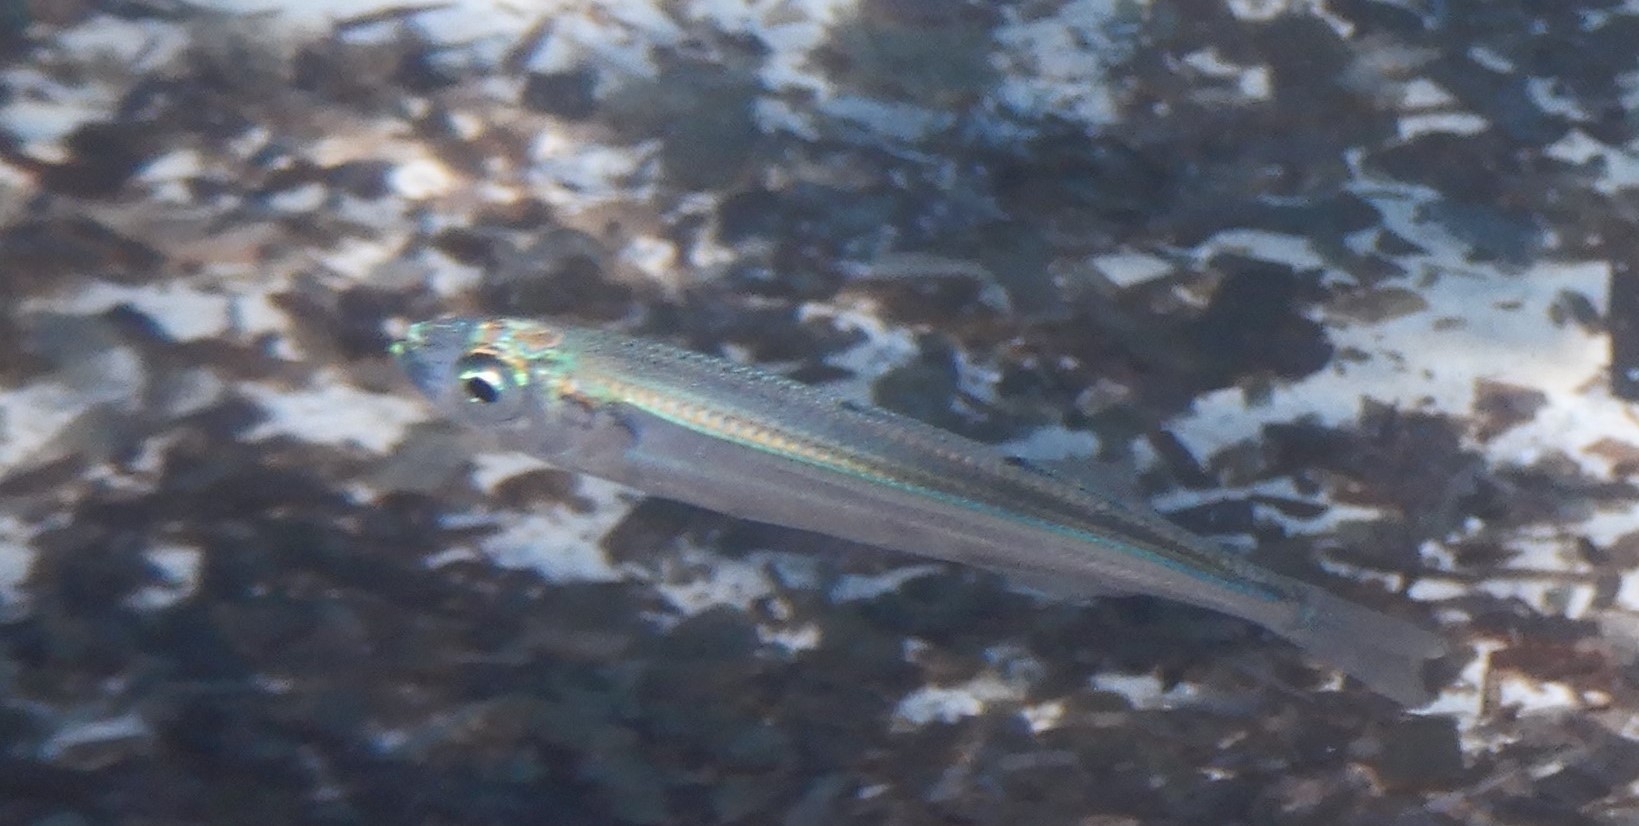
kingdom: Animalia
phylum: Chordata
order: Atheriniformes
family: Atherinidae
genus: Atherina
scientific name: Atherina
